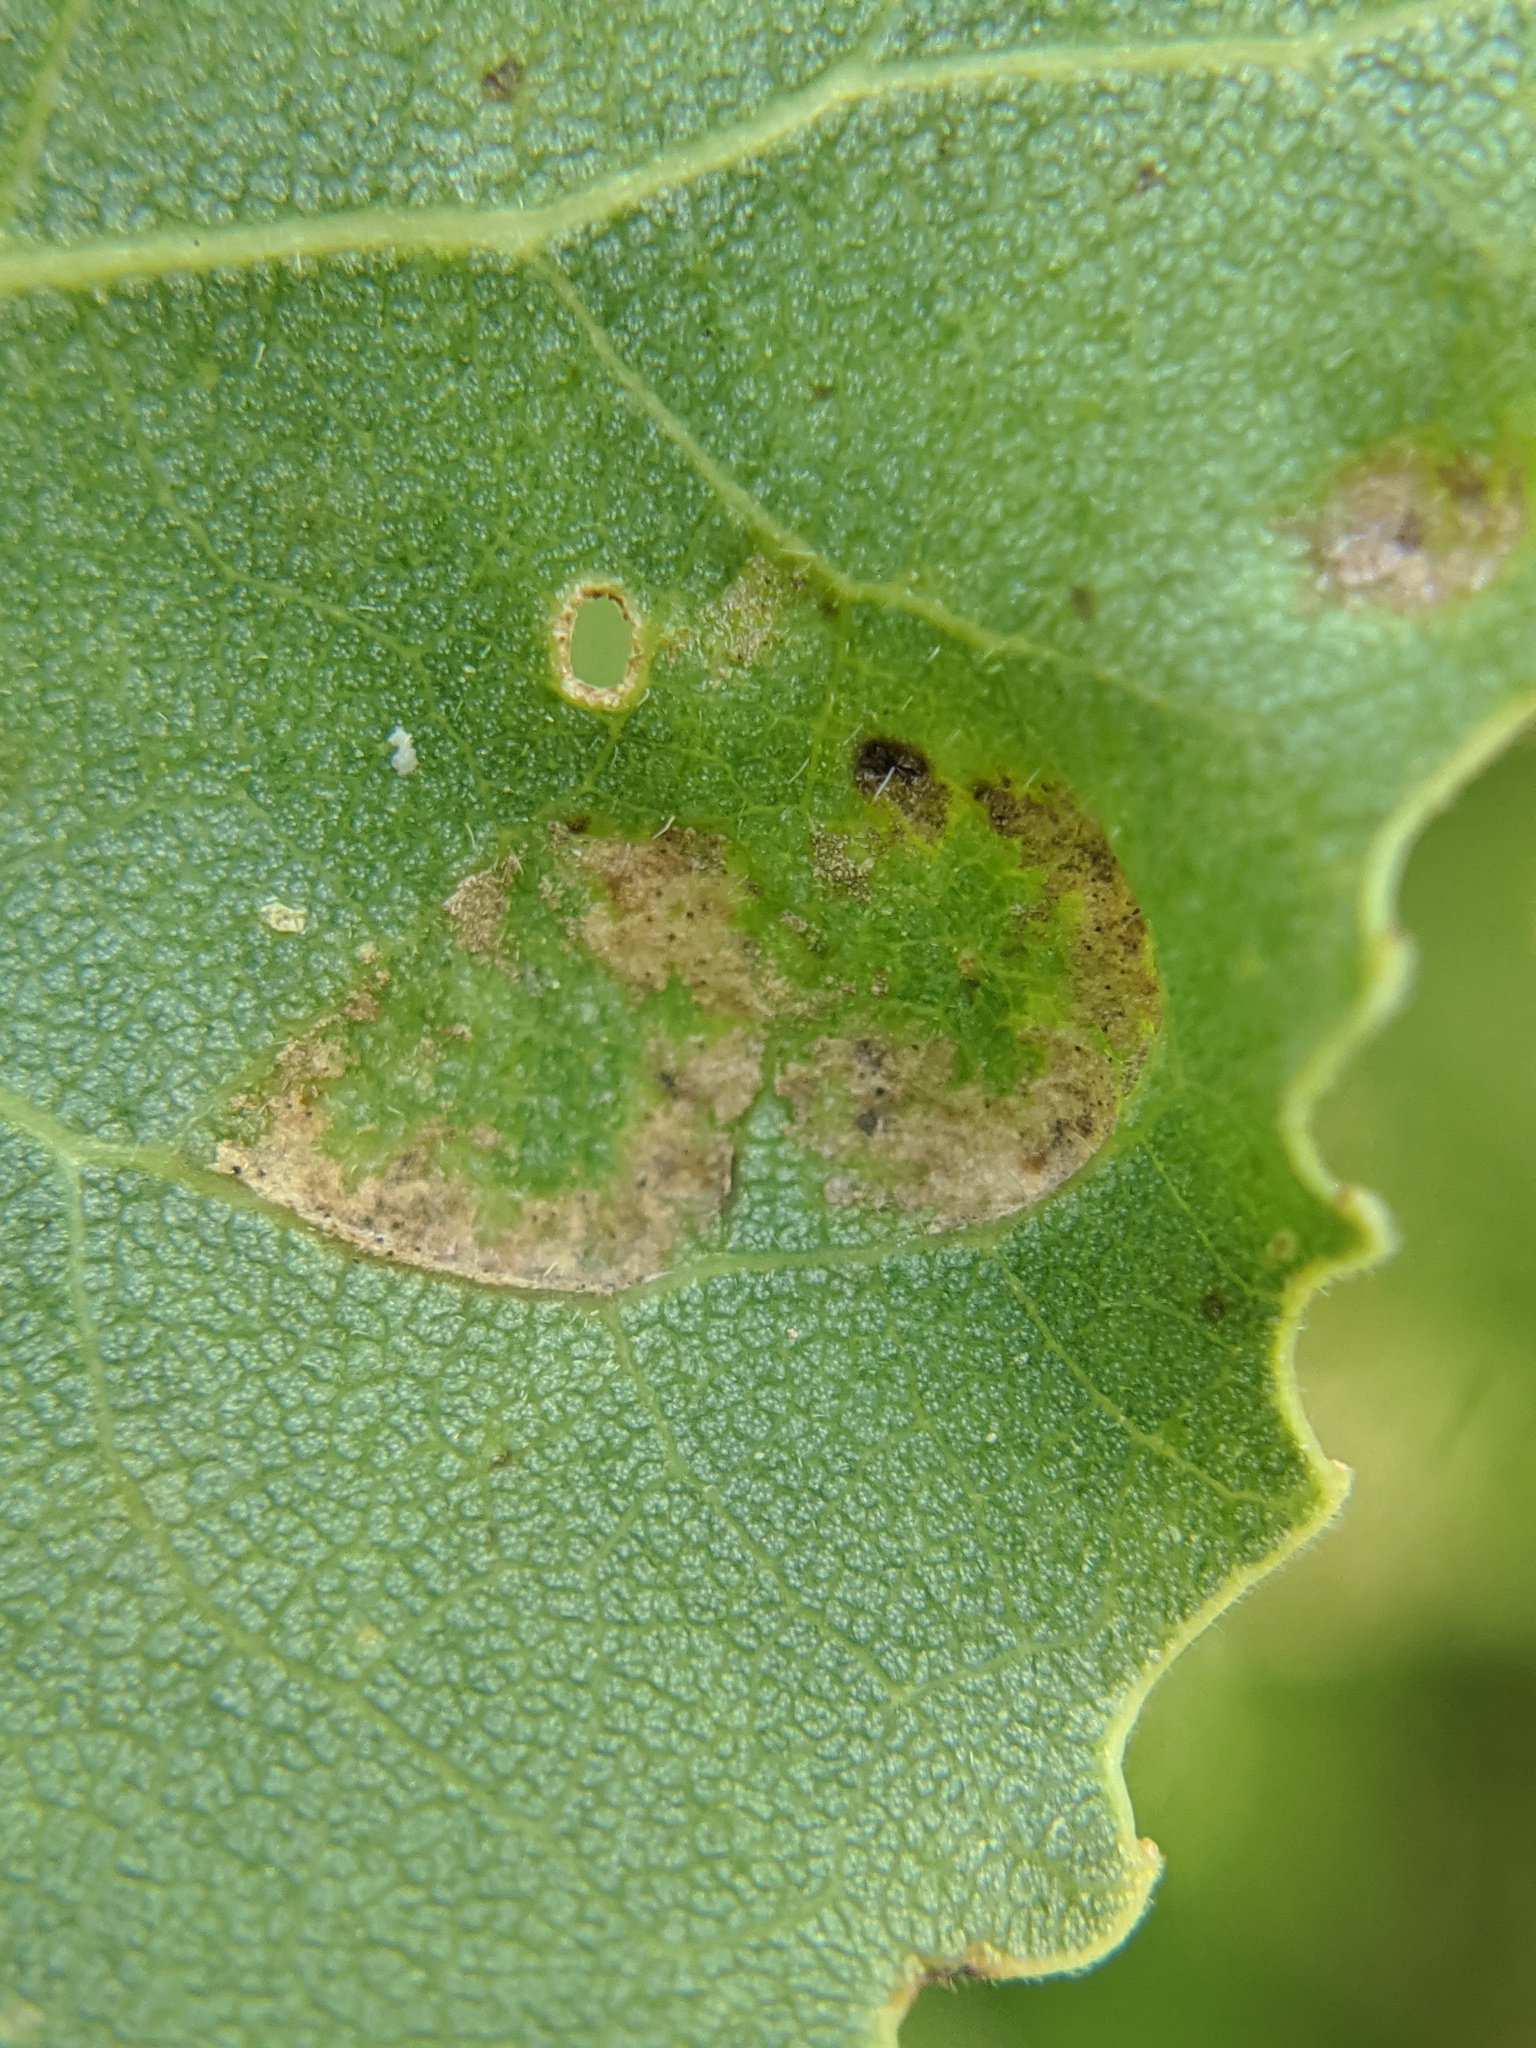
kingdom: Fungi
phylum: Ascomycota
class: Taphrinomycetes
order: Taphrinales
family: Taphrinaceae
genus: Taphrina
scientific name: Taphrina populina
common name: Poplar leaf curl
